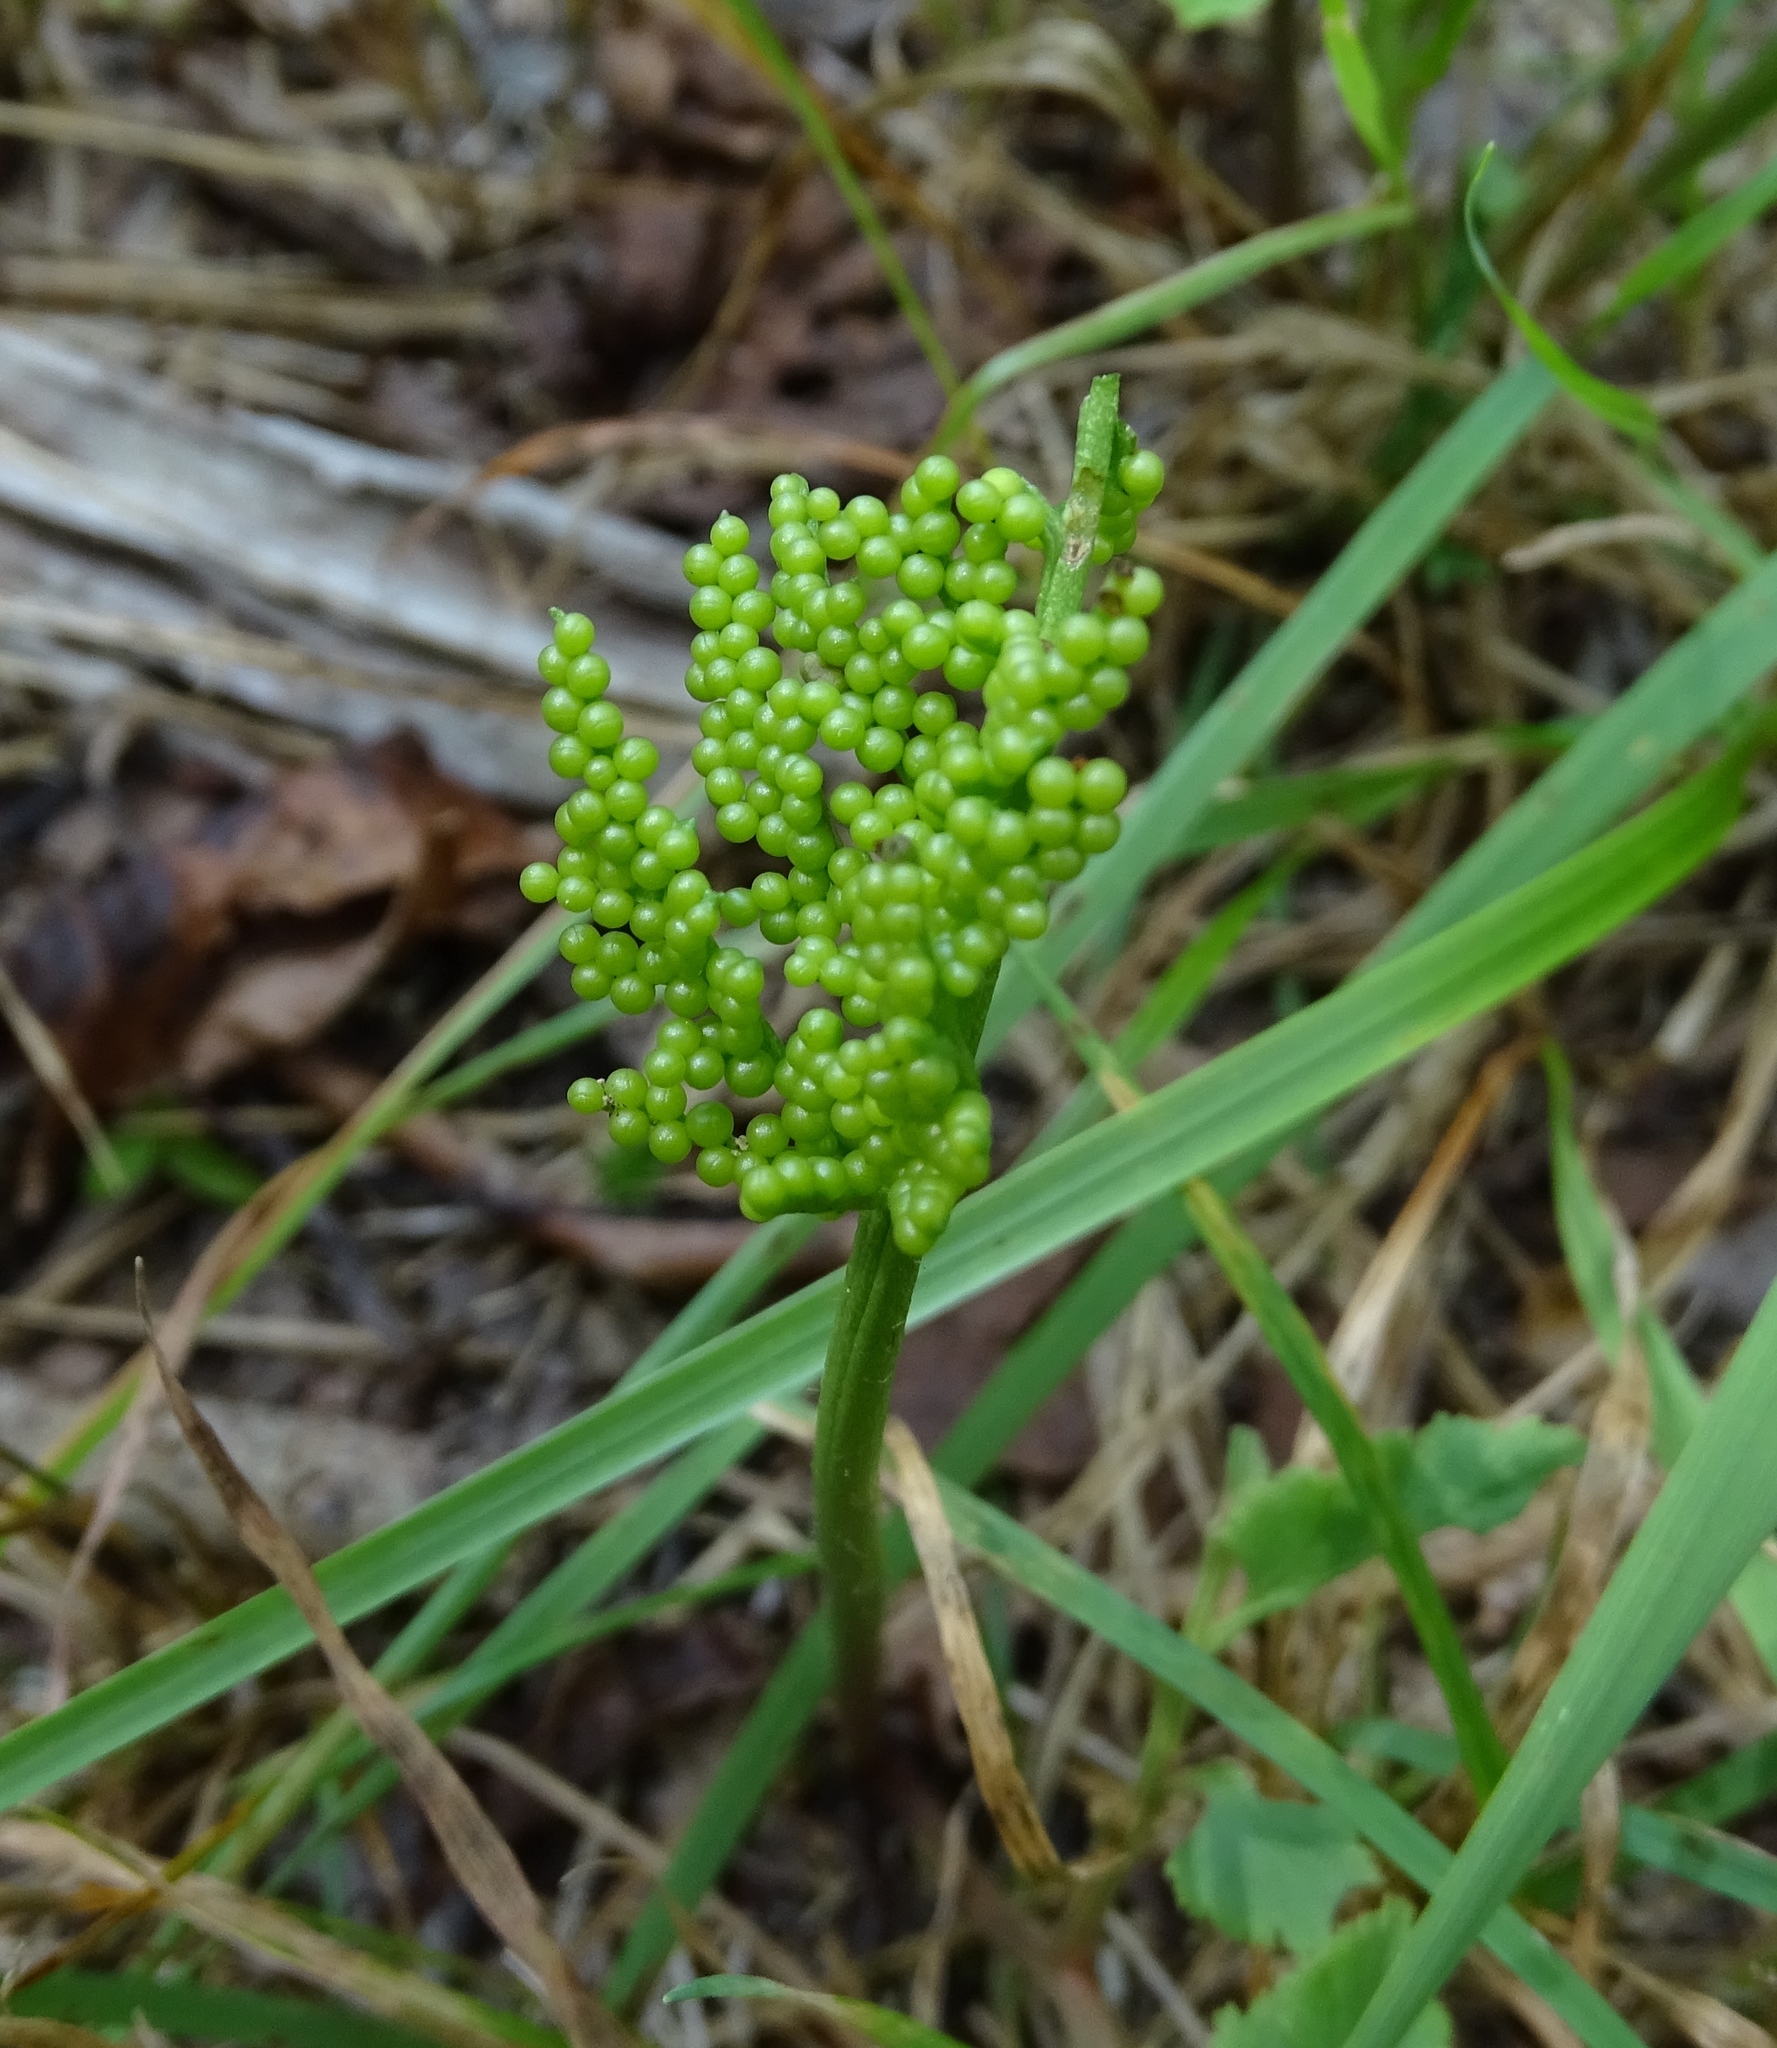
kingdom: Plantae
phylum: Tracheophyta
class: Polypodiopsida
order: Ophioglossales
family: Ophioglossaceae
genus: Sceptridium
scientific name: Sceptridium dissectum
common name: Cut-leaved grapefern
